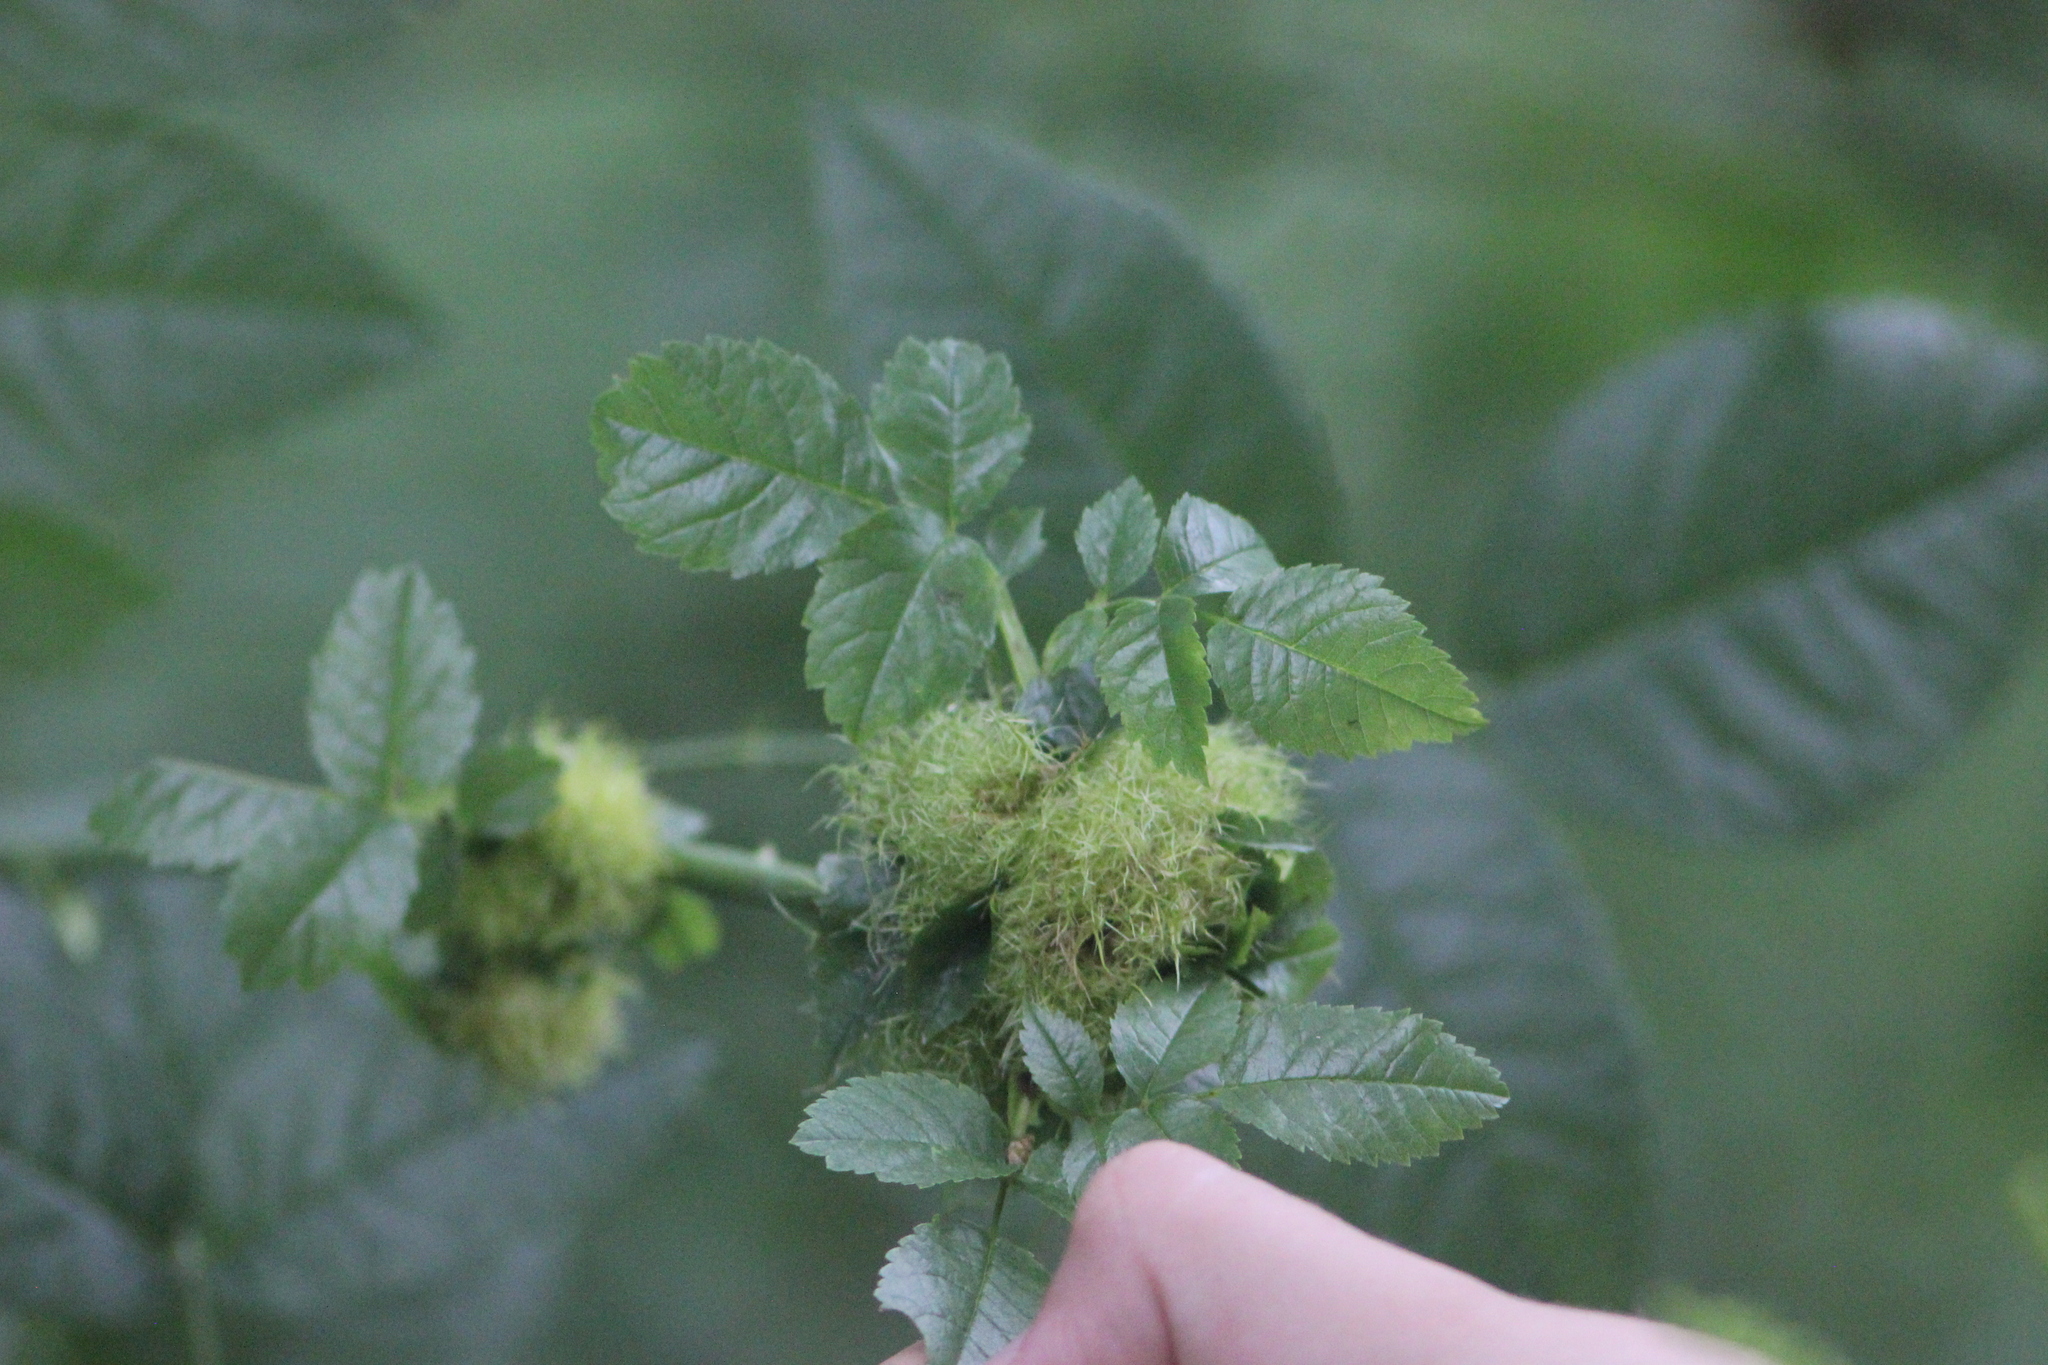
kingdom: Animalia
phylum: Arthropoda
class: Insecta
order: Hymenoptera
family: Cynipidae
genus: Diplolepis
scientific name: Diplolepis rosae
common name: Bedeguar gall
